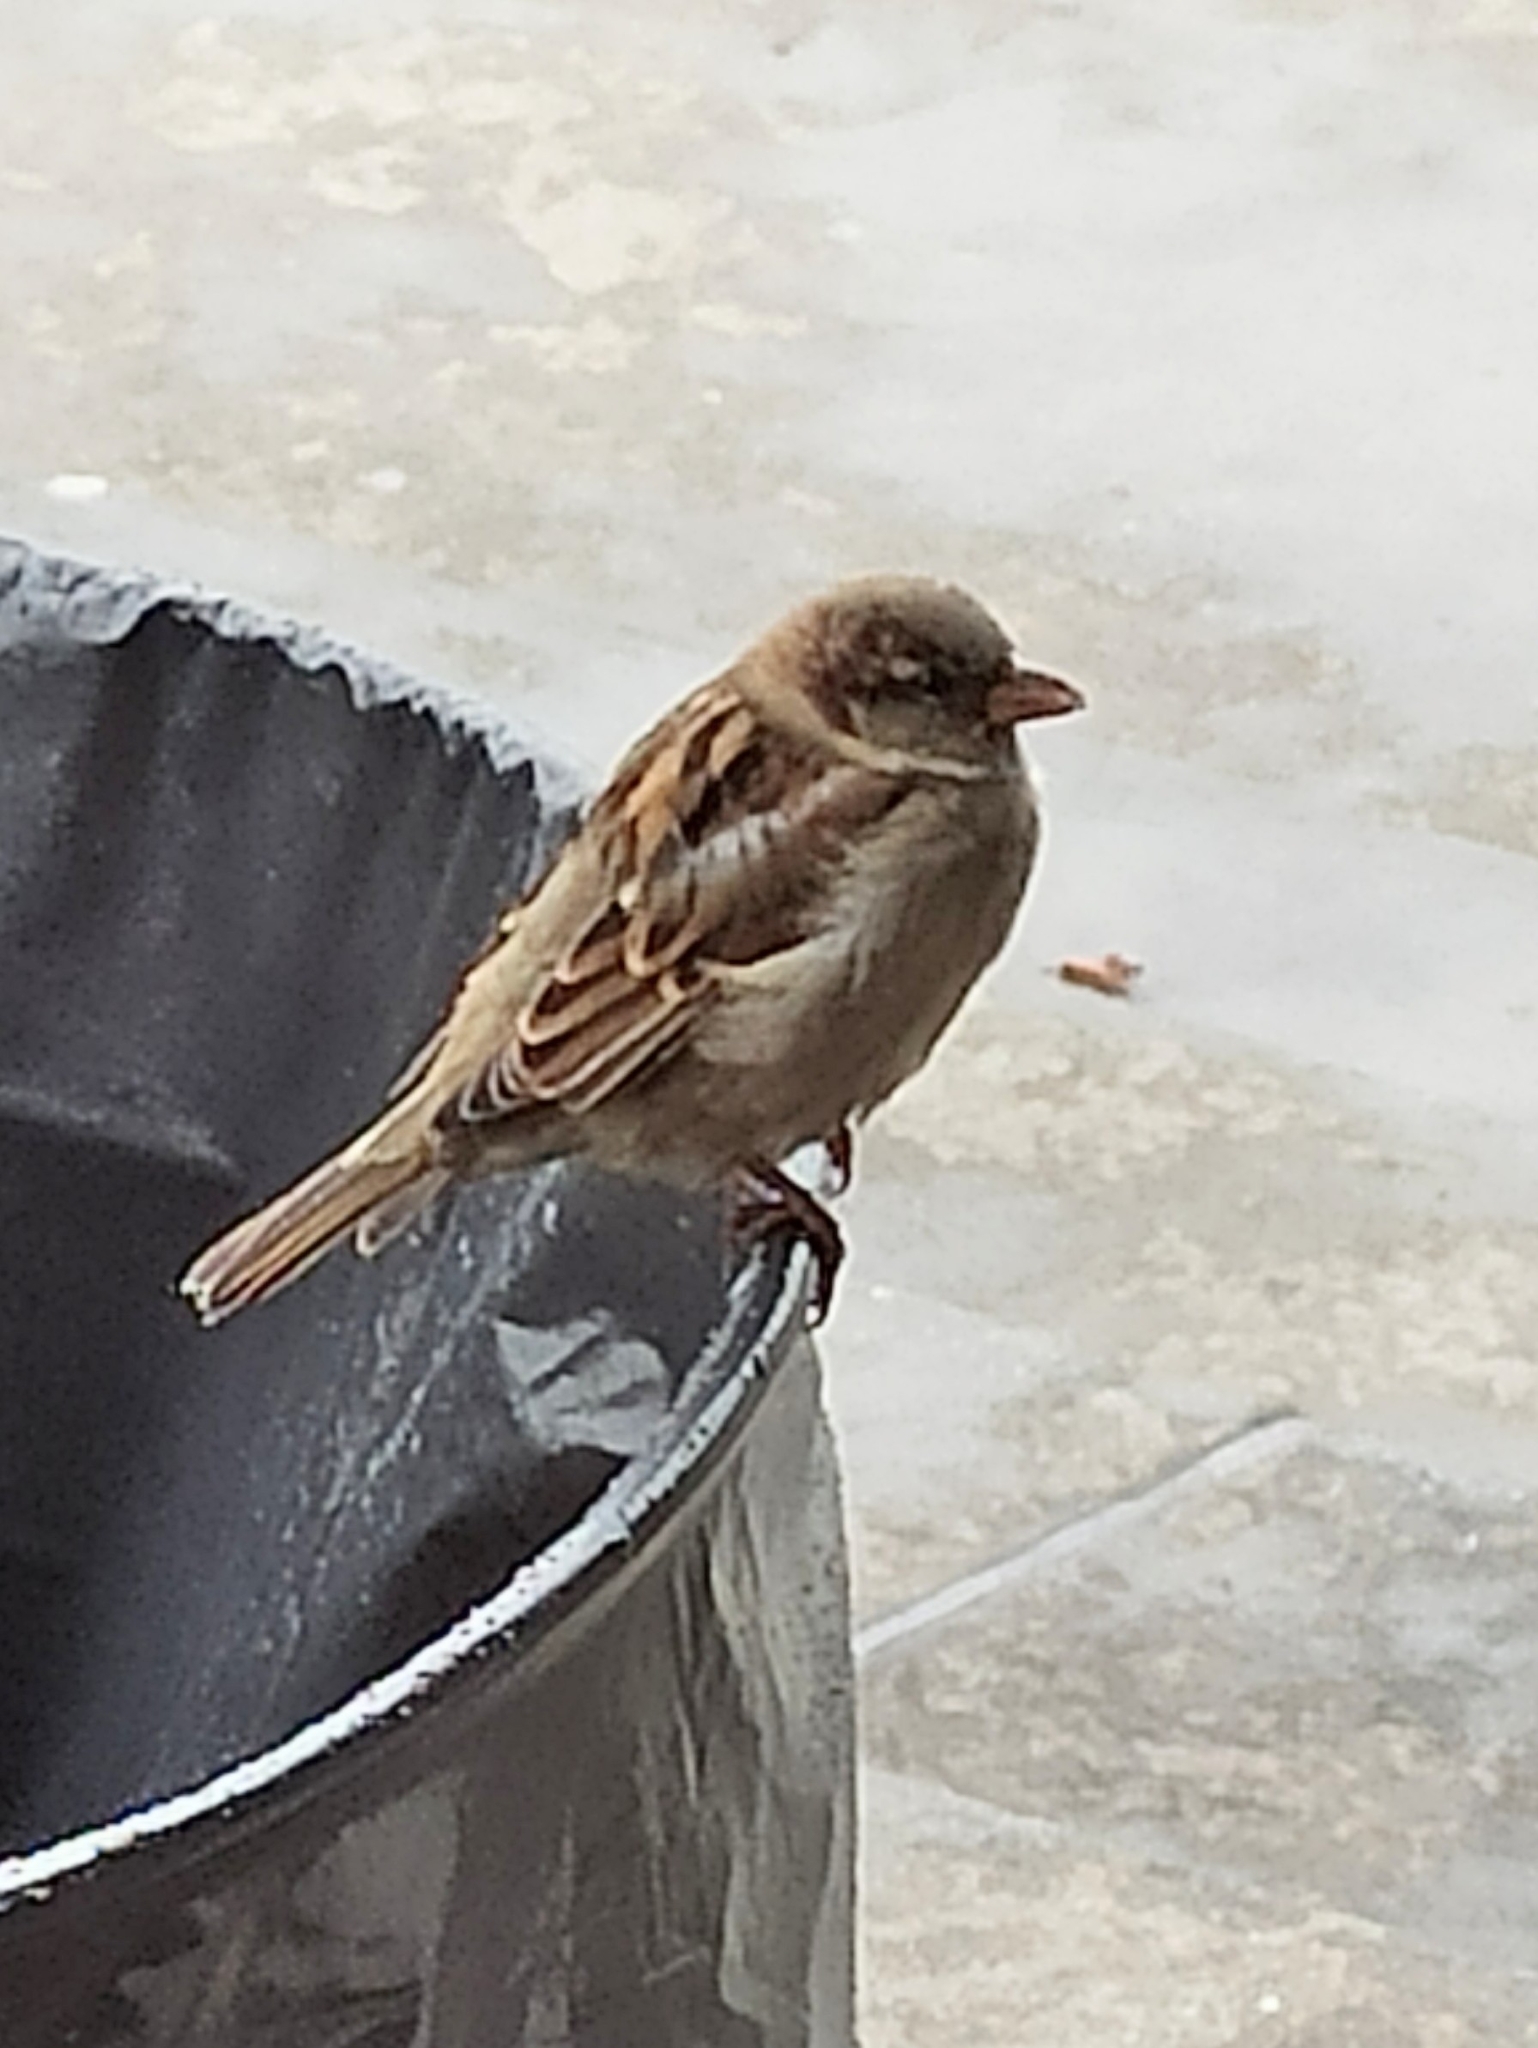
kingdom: Animalia
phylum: Chordata
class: Aves
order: Passeriformes
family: Passeridae
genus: Passer
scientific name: Passer domesticus
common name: House sparrow
